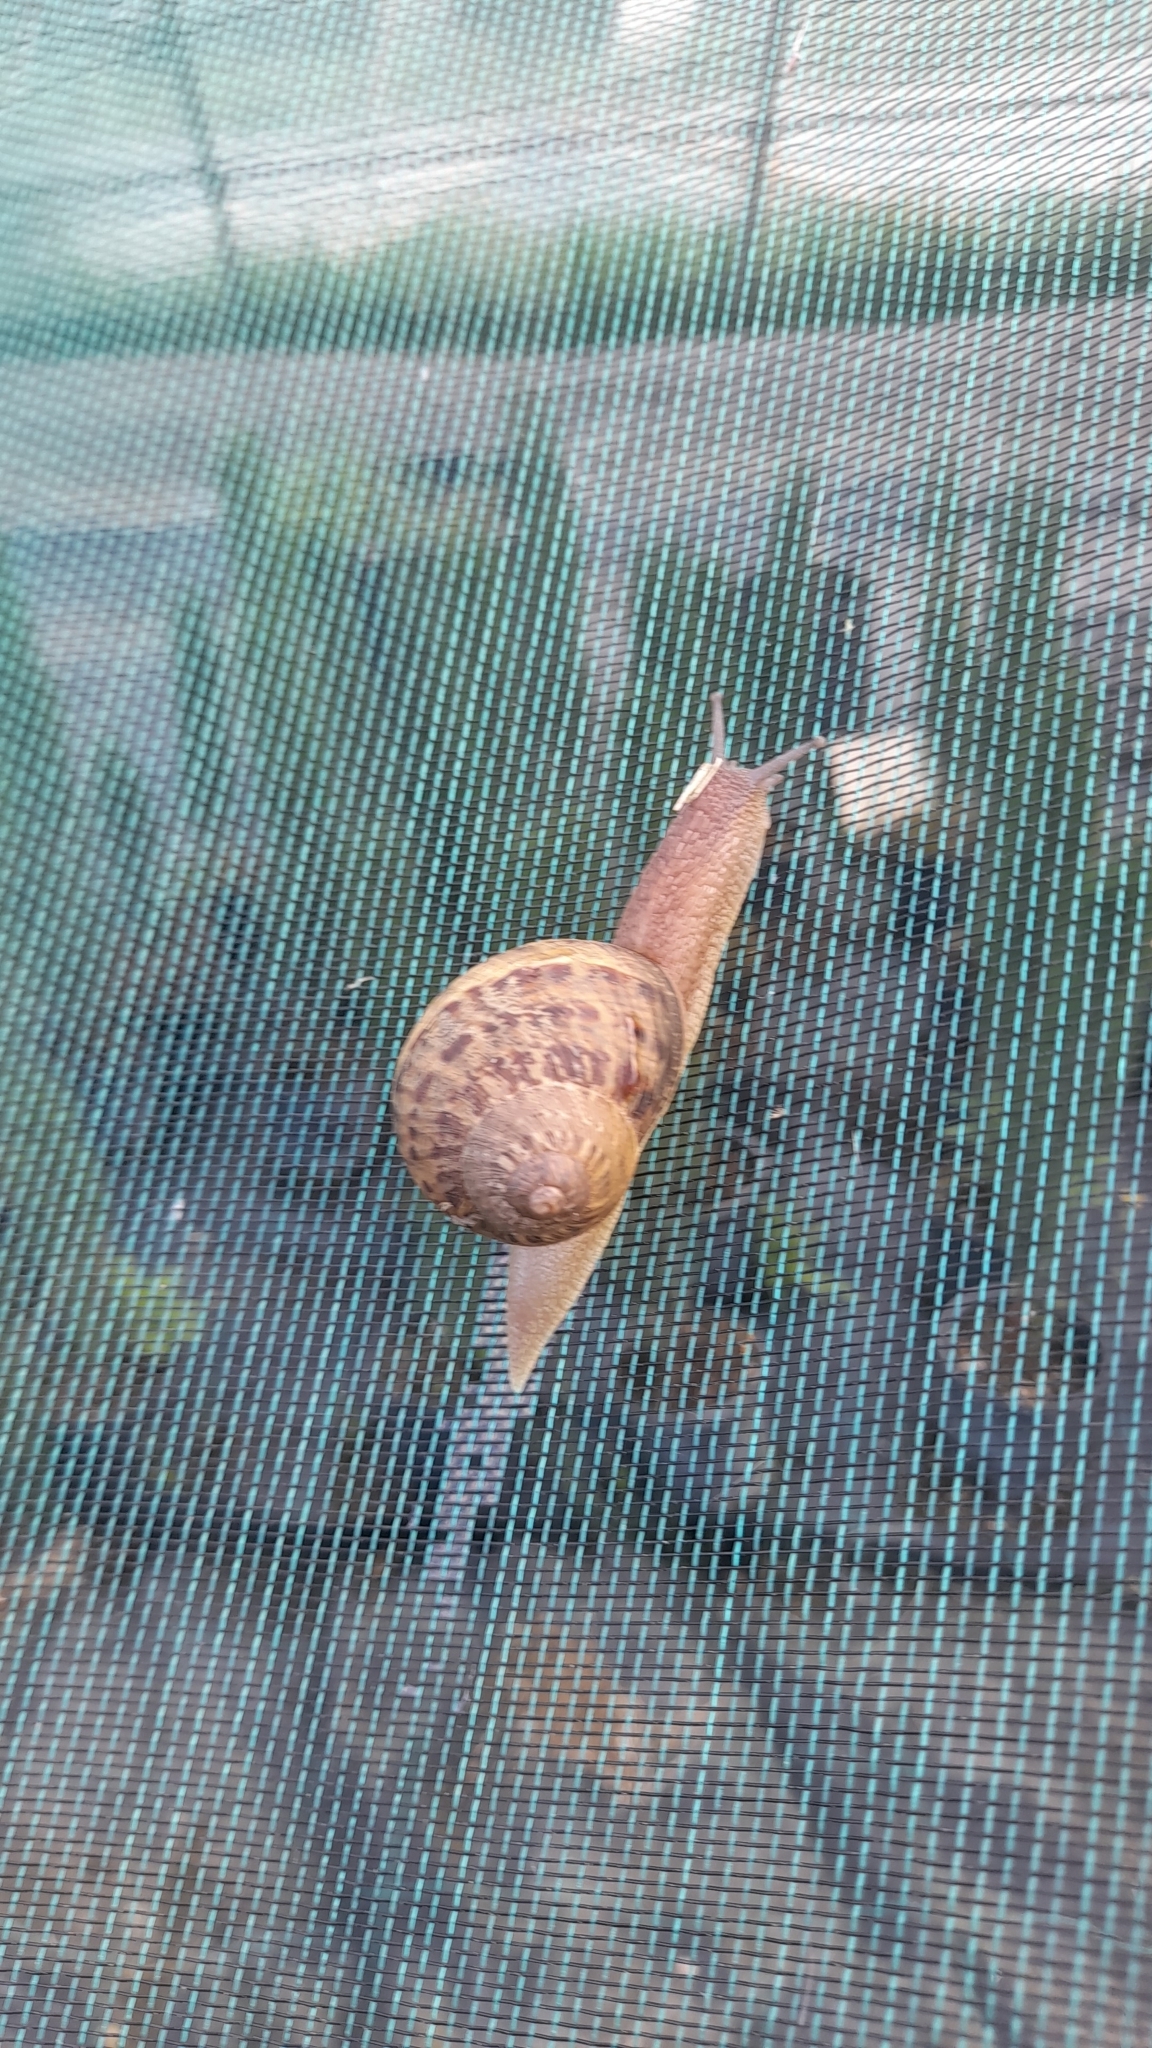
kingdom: Animalia
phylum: Mollusca
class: Gastropoda
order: Stylommatophora
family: Helicidae
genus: Cornu
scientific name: Cornu aspersum
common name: Brown garden snail
